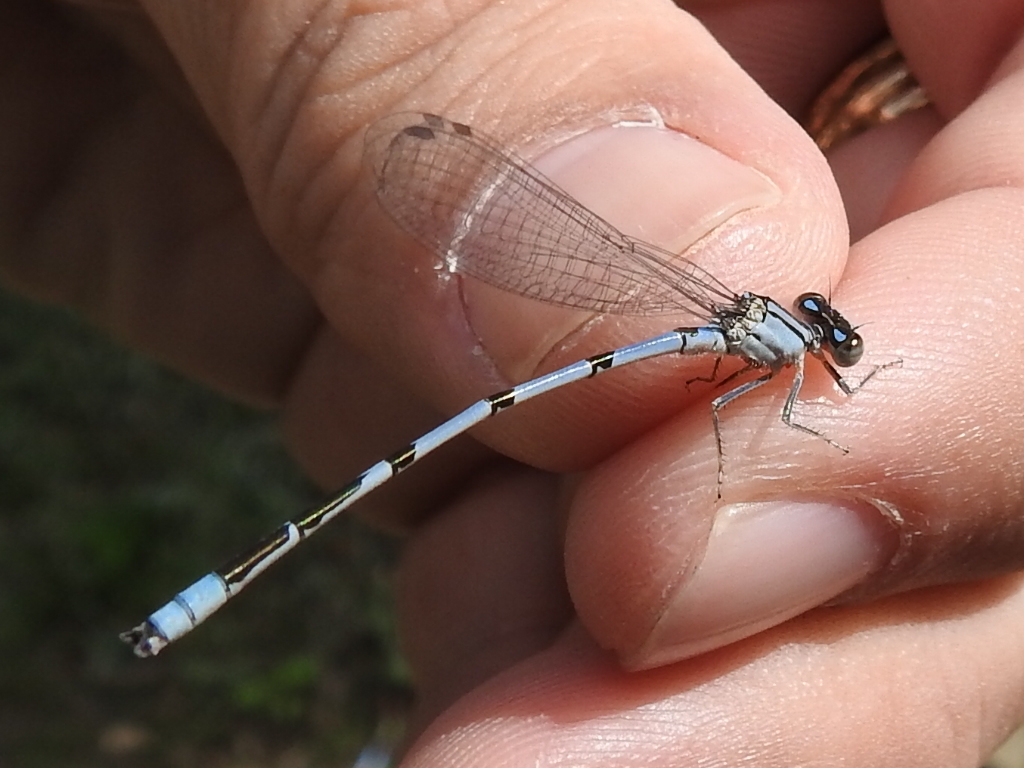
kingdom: Animalia
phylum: Arthropoda
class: Insecta
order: Odonata
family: Coenagrionidae
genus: Enallagma
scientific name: Enallagma civile
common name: Damselfly
